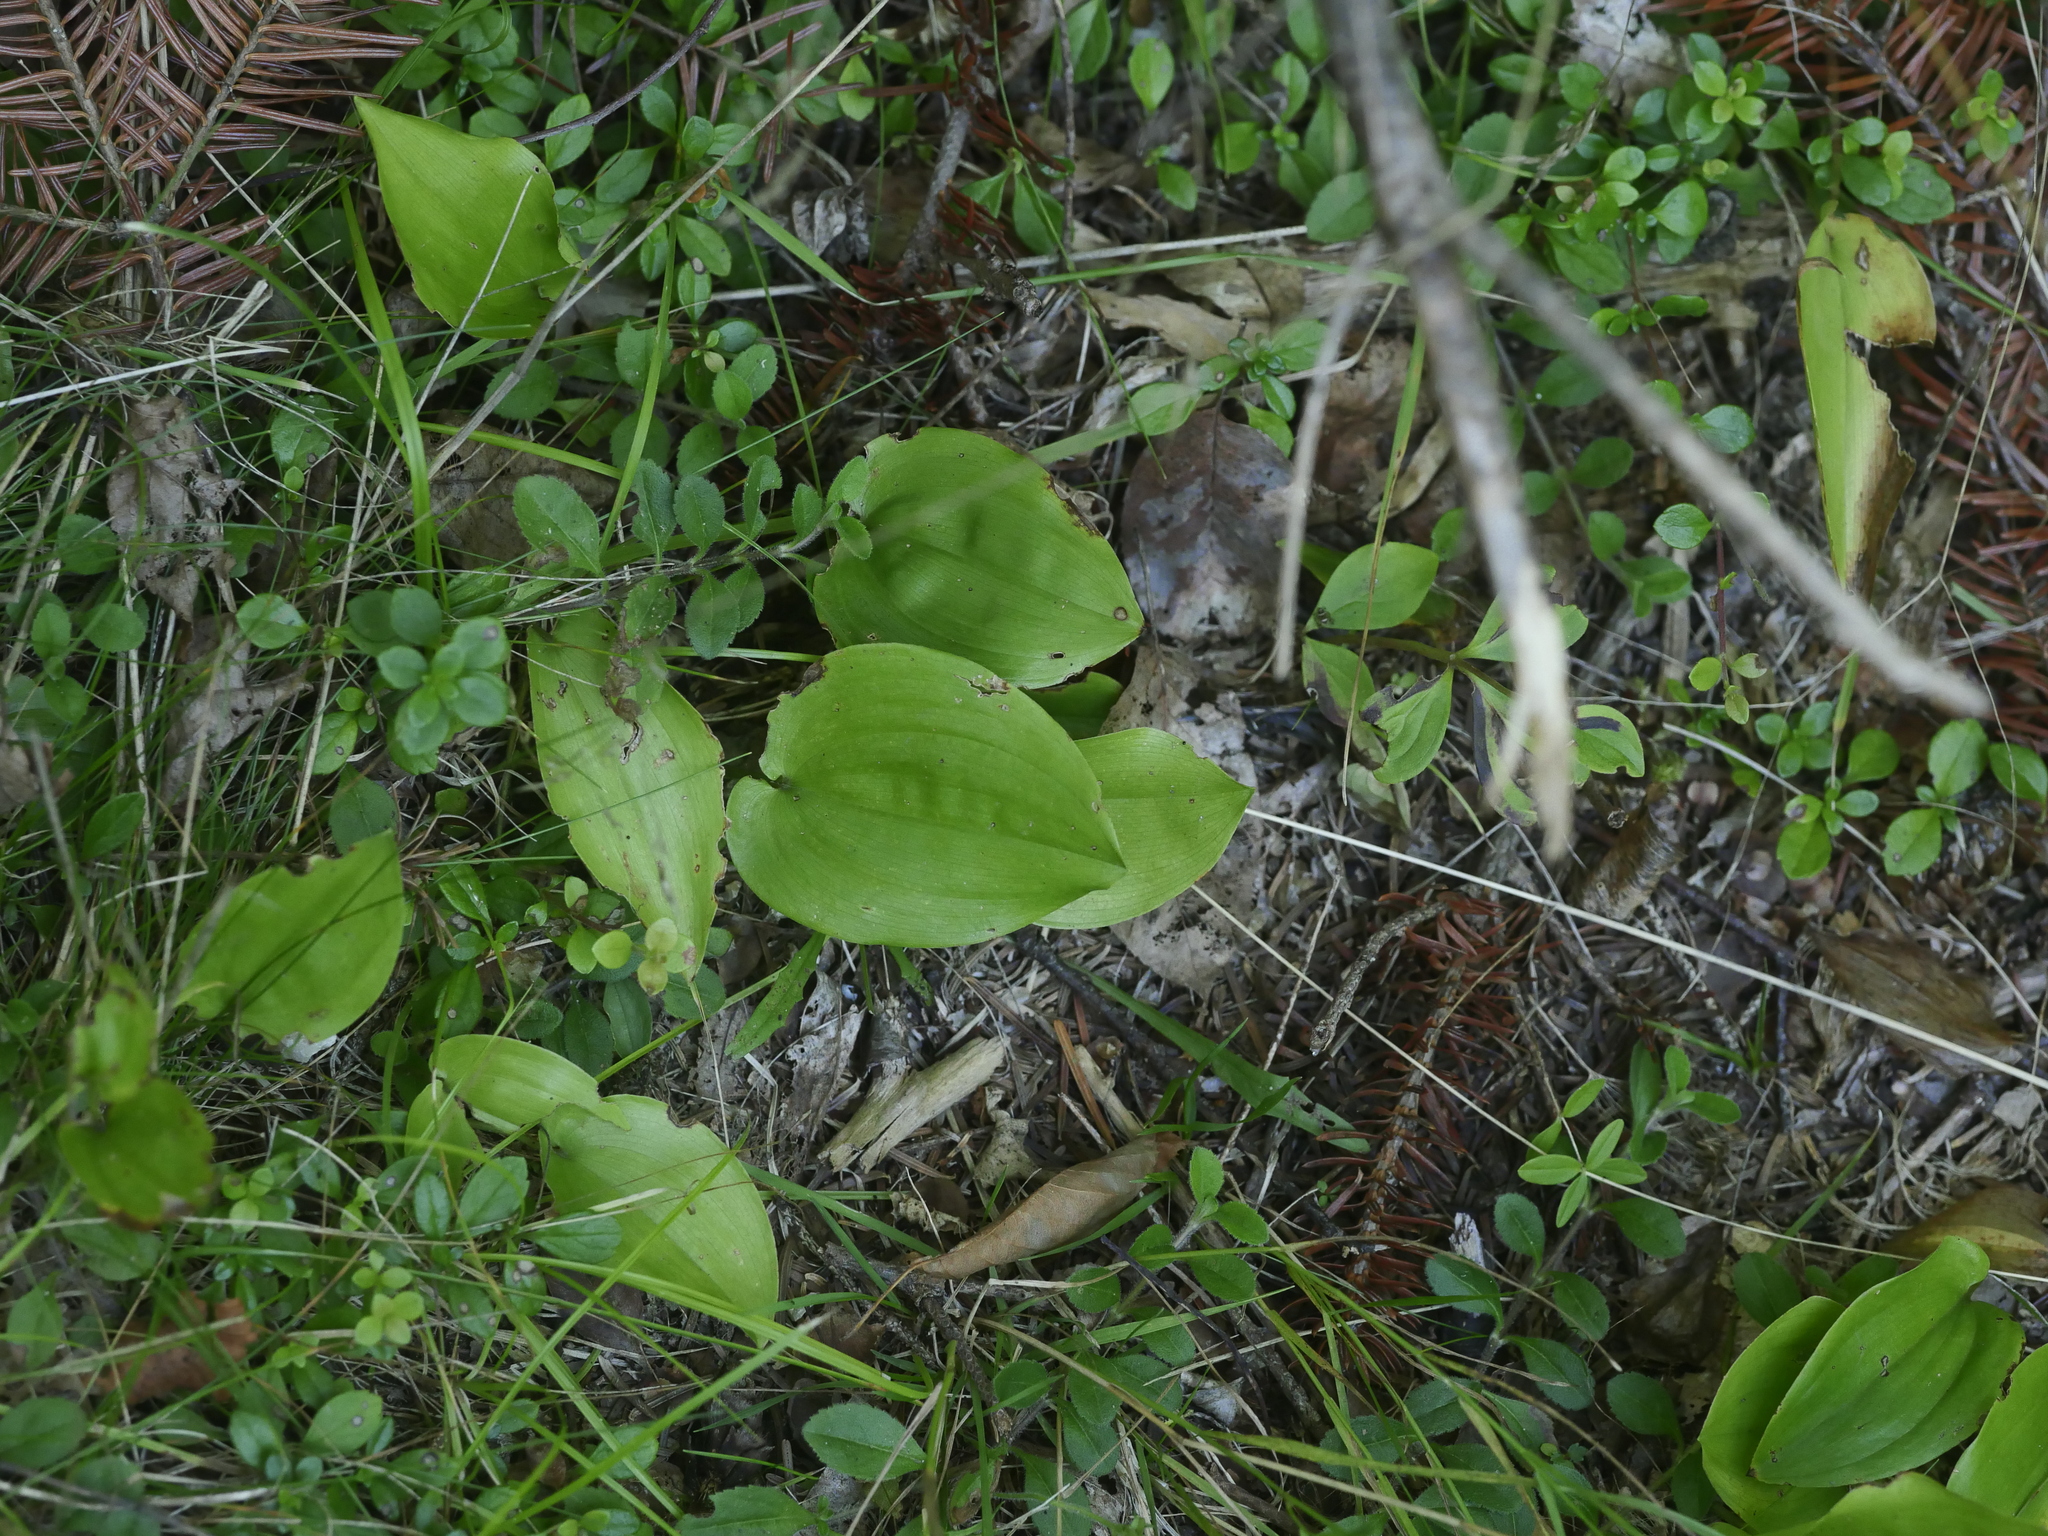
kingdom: Plantae
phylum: Tracheophyta
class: Liliopsida
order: Asparagales
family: Asparagaceae
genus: Maianthemum
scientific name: Maianthemum canadense
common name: False lily-of-the-valley
